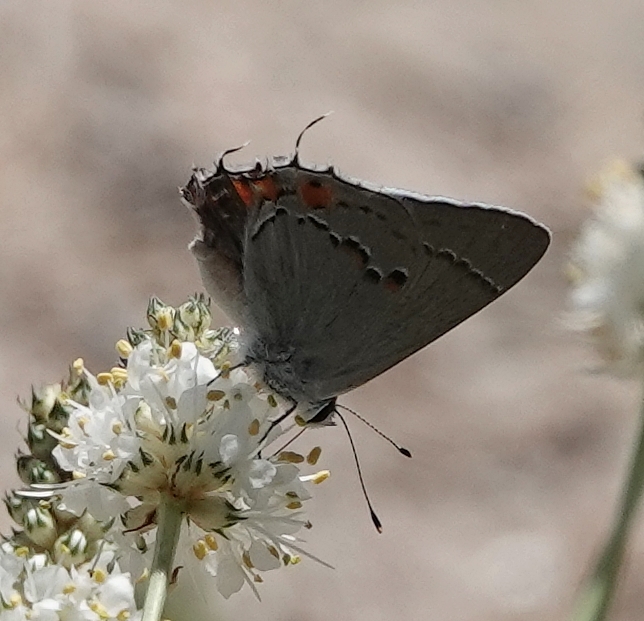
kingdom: Animalia
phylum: Arthropoda
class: Insecta
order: Lepidoptera
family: Lycaenidae
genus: Strymon
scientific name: Strymon melinus
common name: Gray hairstreak
